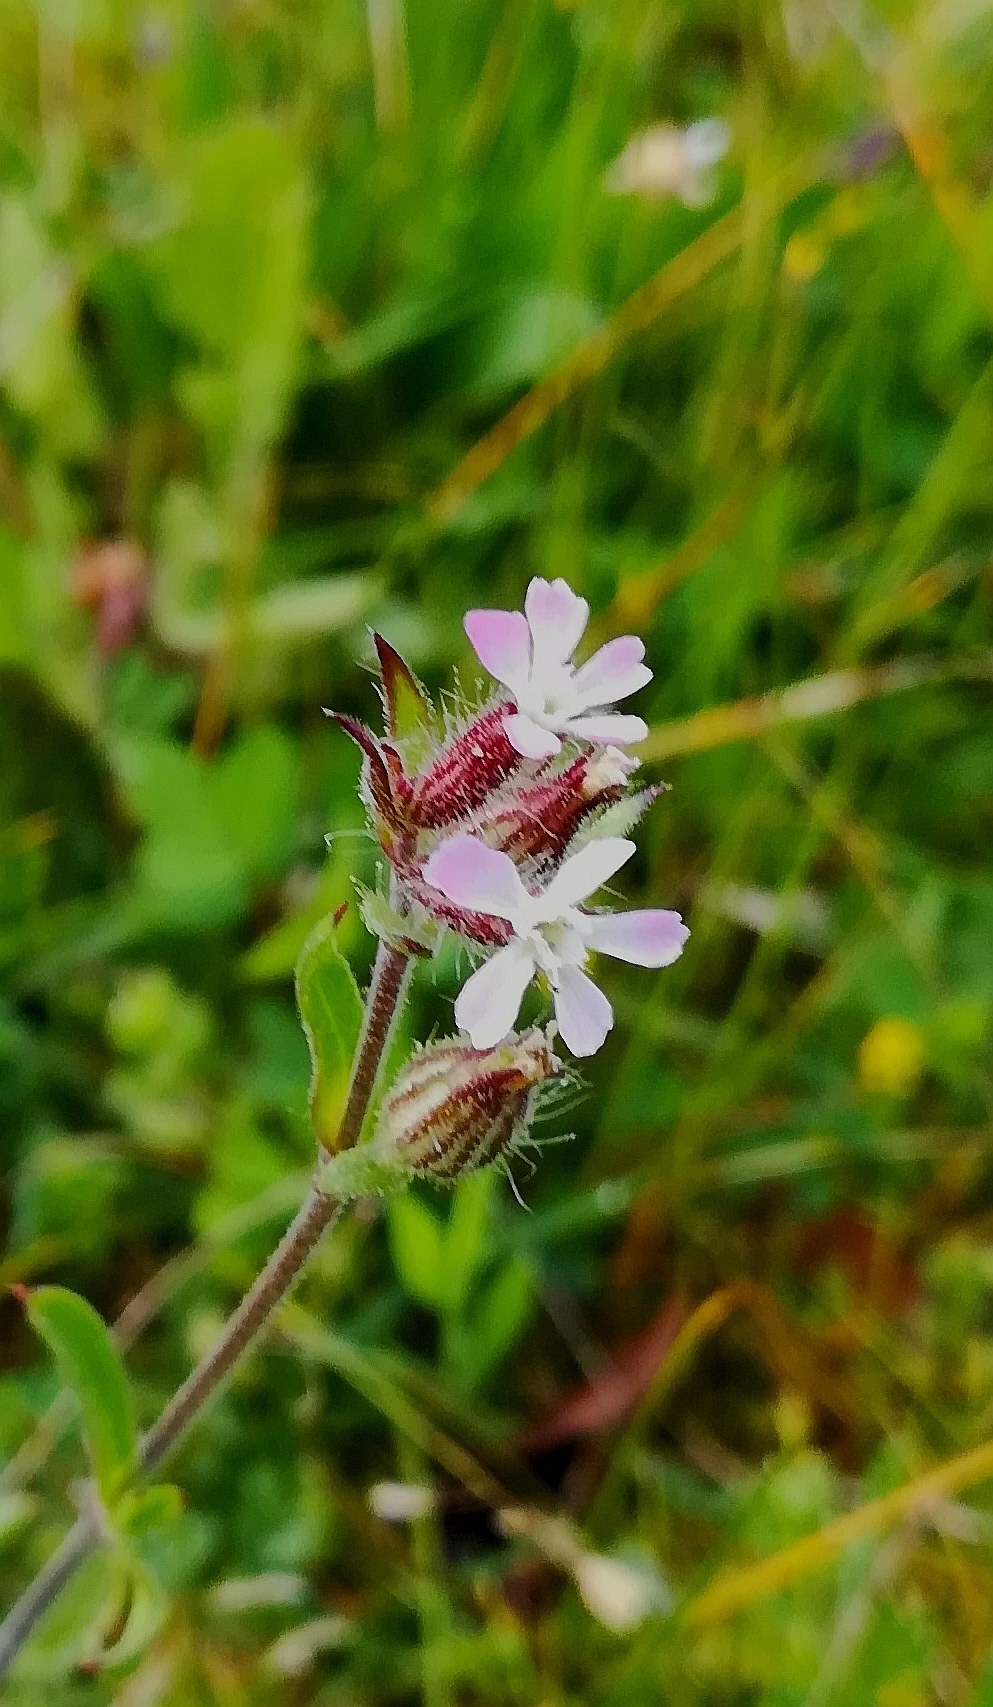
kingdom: Plantae
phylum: Tracheophyta
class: Magnoliopsida
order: Caryophyllales
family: Caryophyllaceae
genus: Silene
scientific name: Silene gallica
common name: Small-flowered catchfly
